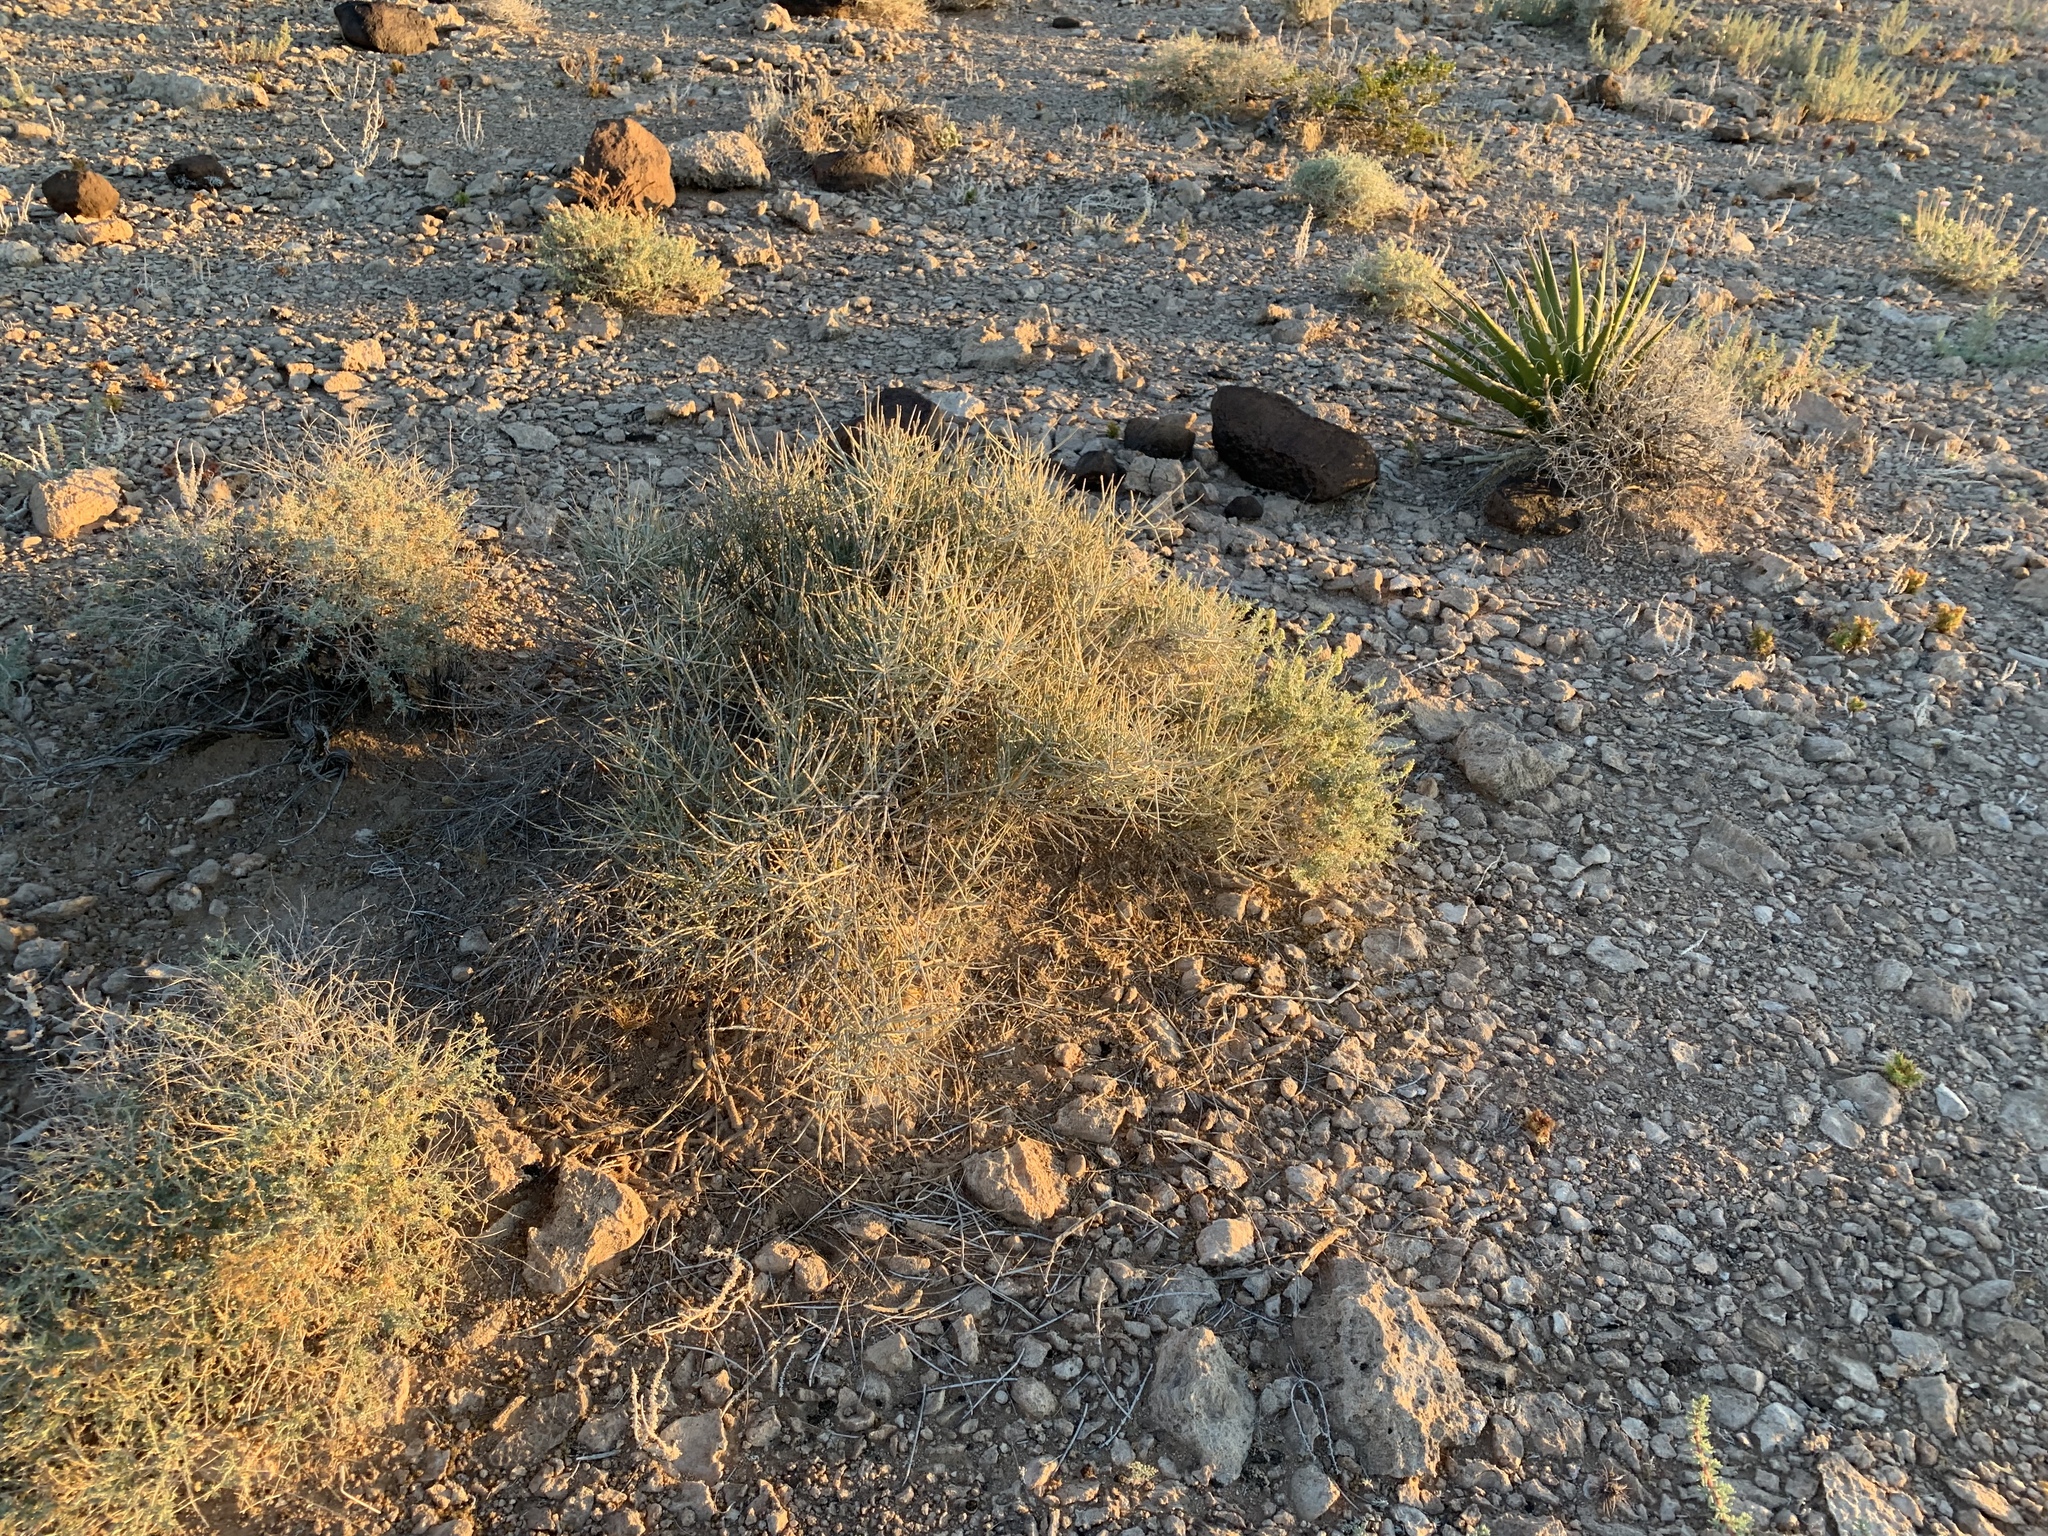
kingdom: Plantae
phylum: Tracheophyta
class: Gnetopsida
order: Ephedrales
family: Ephedraceae
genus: Ephedra
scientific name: Ephedra nevadensis
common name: Gray ephedra
